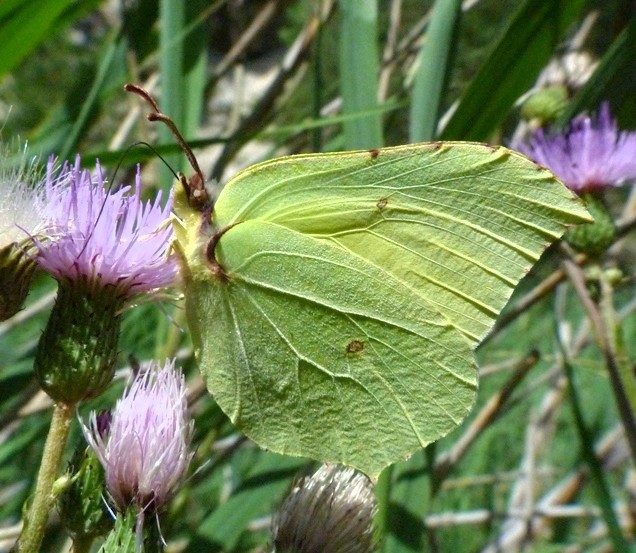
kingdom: Animalia
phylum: Arthropoda
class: Insecta
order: Lepidoptera
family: Pieridae
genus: Gonepteryx
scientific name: Gonepteryx rhamni
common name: Brimstone
